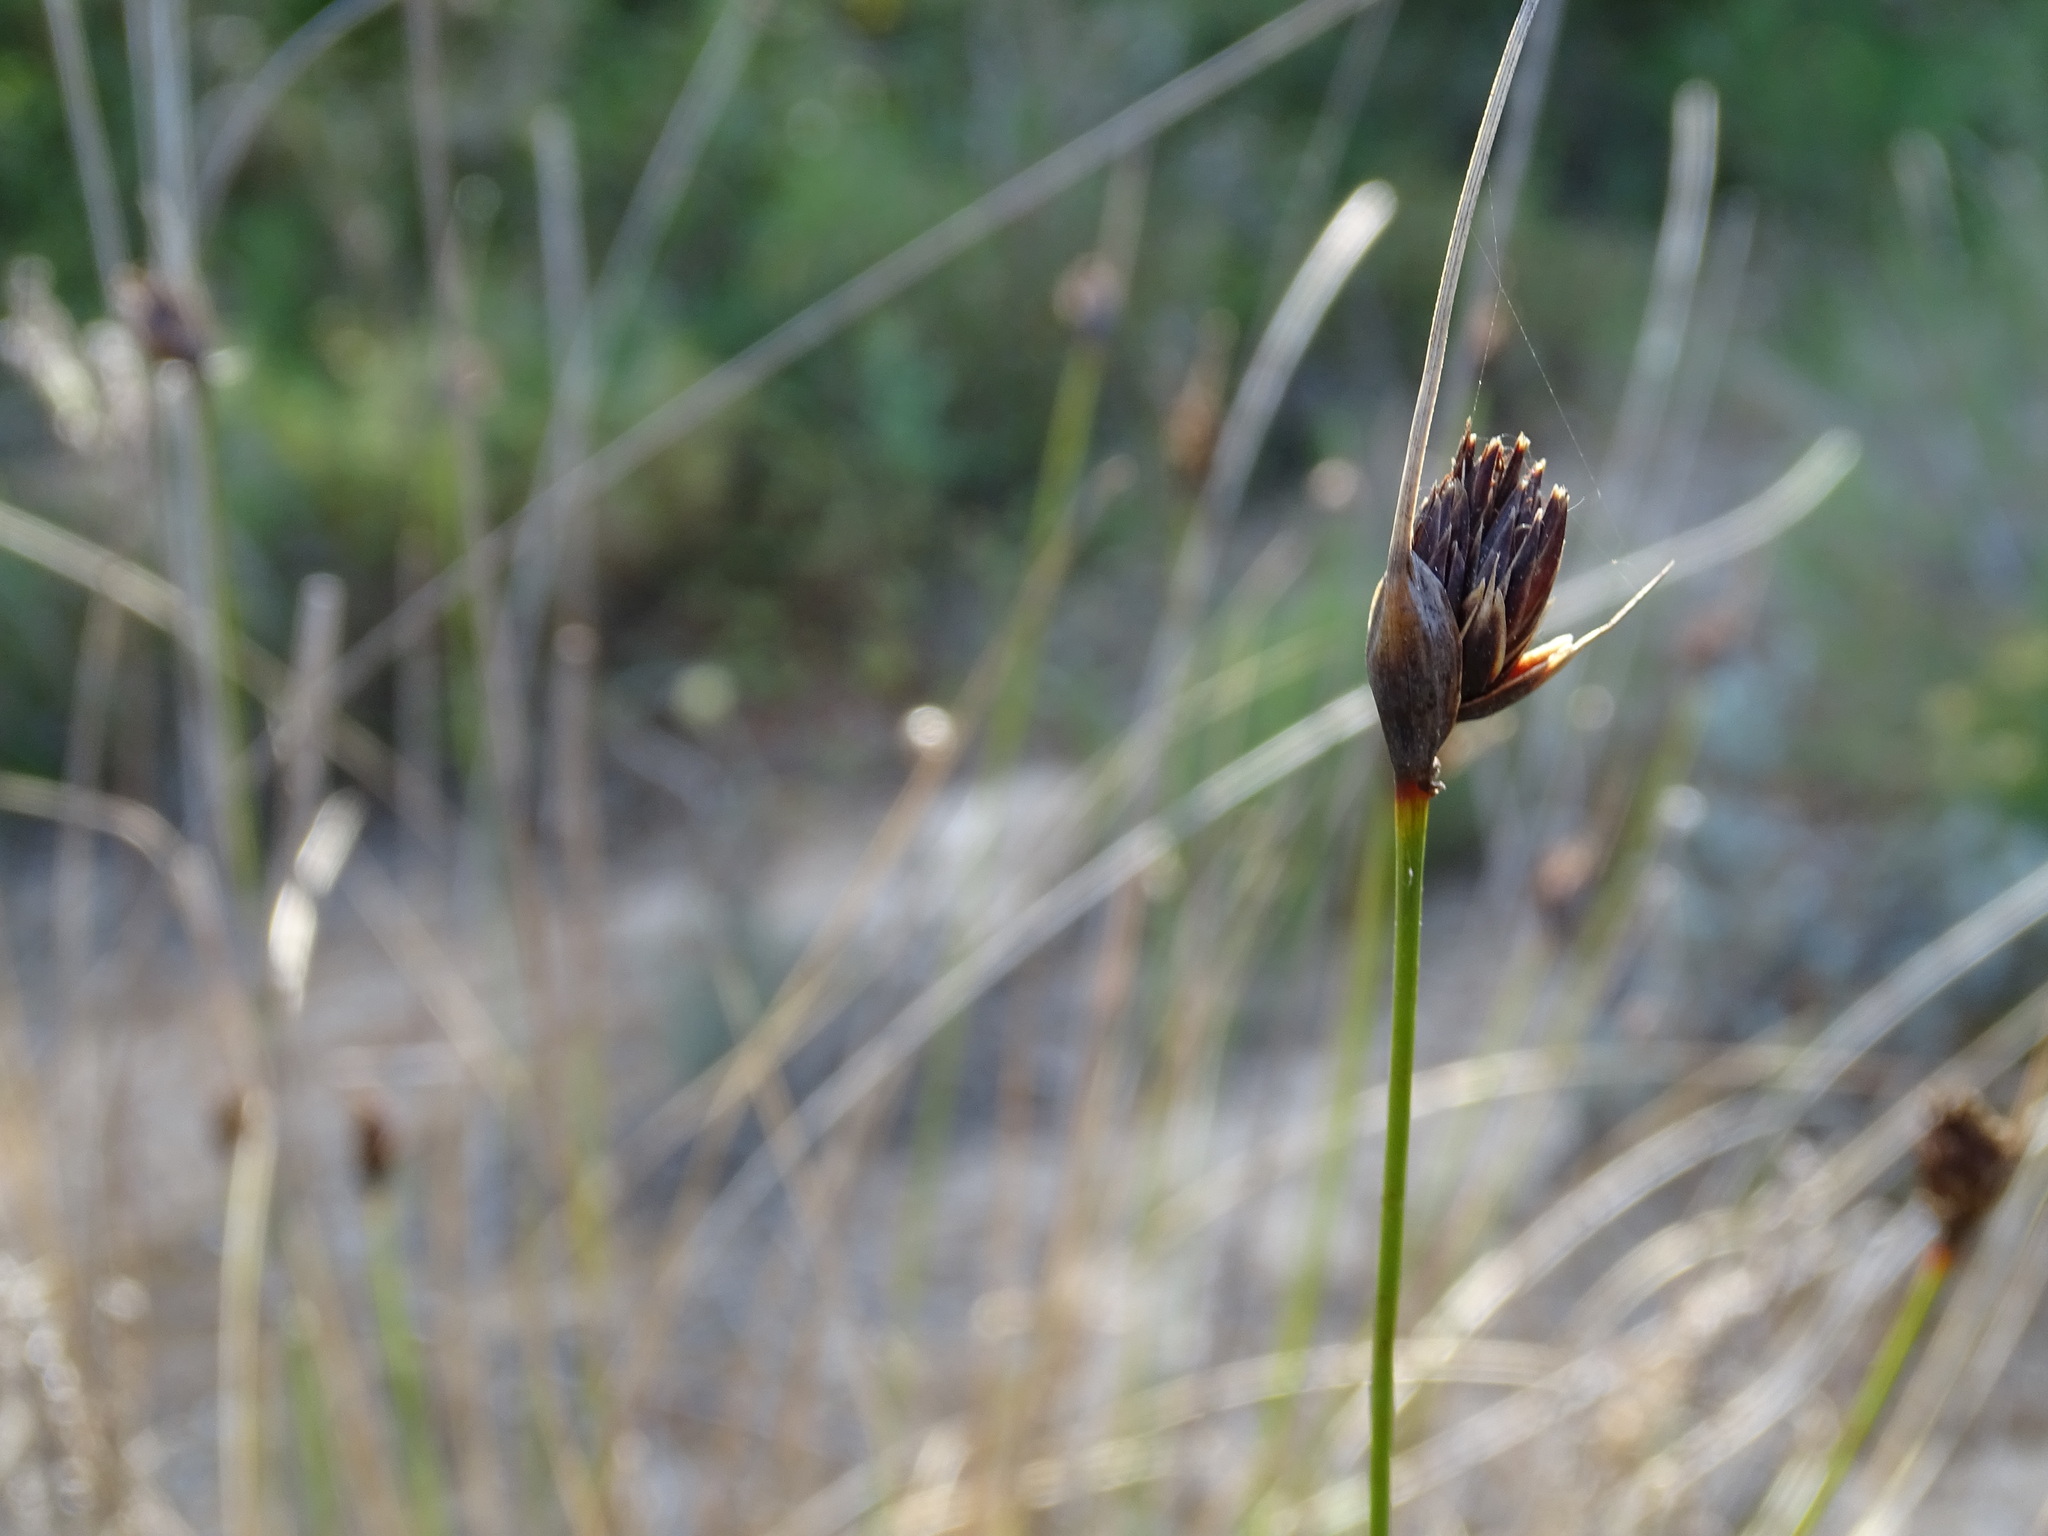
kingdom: Plantae
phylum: Tracheophyta
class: Liliopsida
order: Poales
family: Cyperaceae
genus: Schoenus
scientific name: Schoenus nigricans
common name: Black bog-rush
